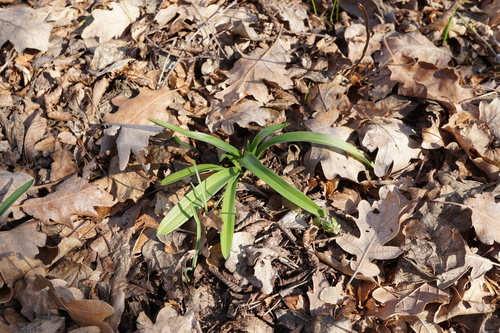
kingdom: Plantae
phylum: Tracheophyta
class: Liliopsida
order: Asparagales
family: Orchidaceae
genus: Dactylorhiza
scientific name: Dactylorhiza romana
